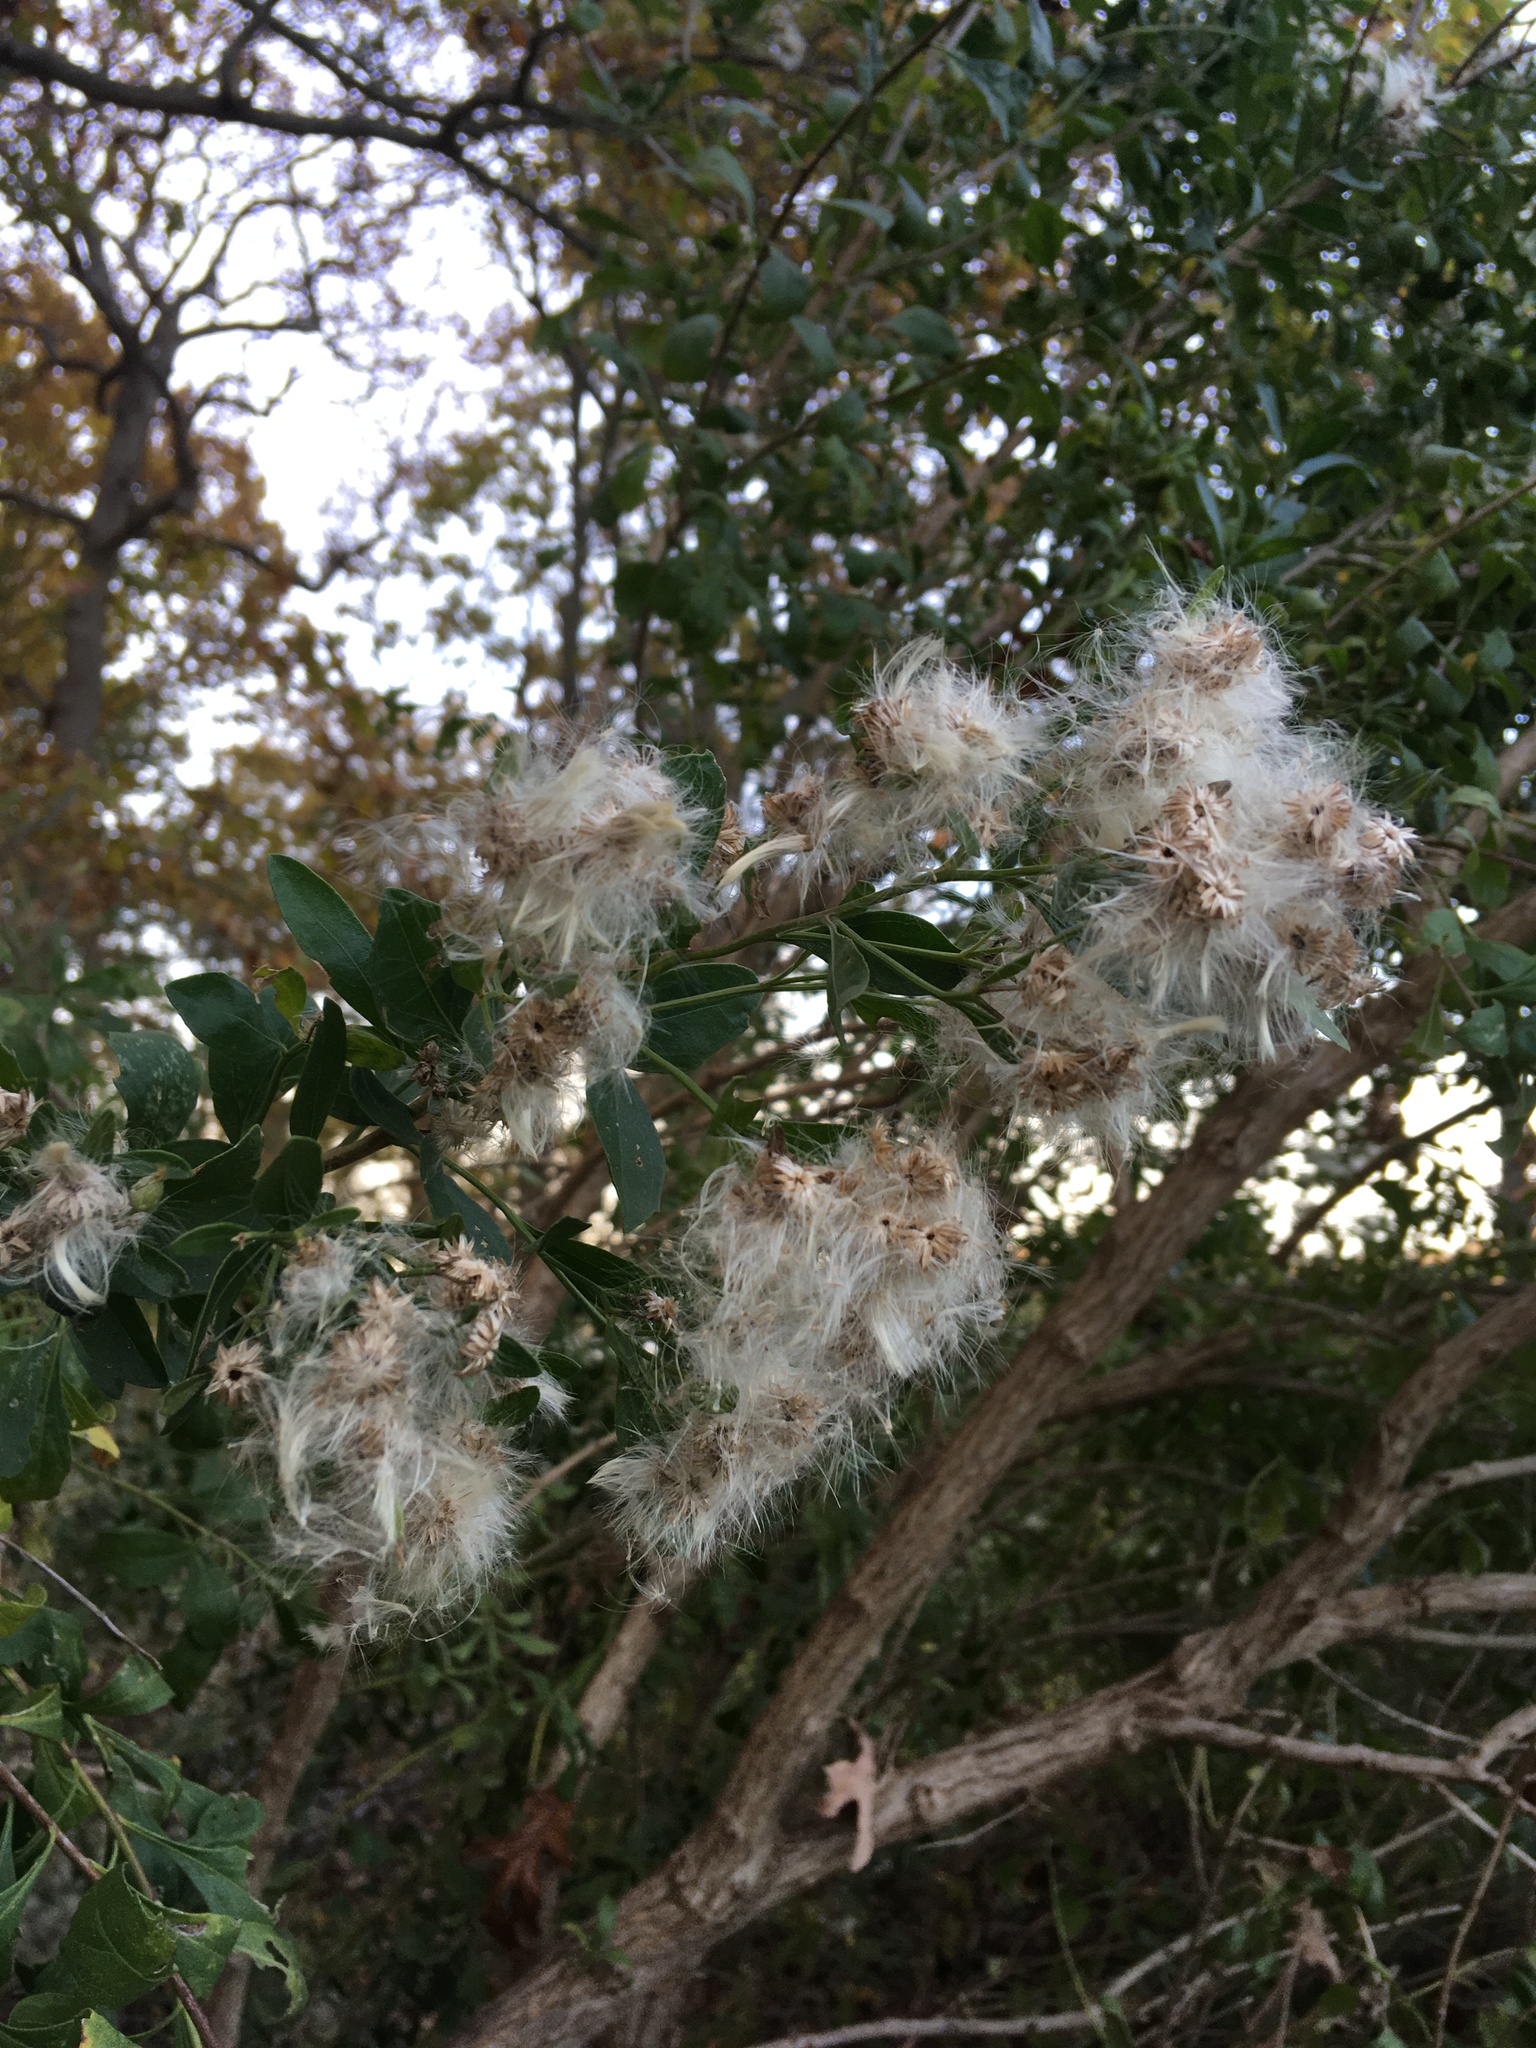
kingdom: Plantae
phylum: Tracheophyta
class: Magnoliopsida
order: Asterales
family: Asteraceae
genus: Baccharis
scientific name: Baccharis halimifolia
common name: Eastern baccharis
